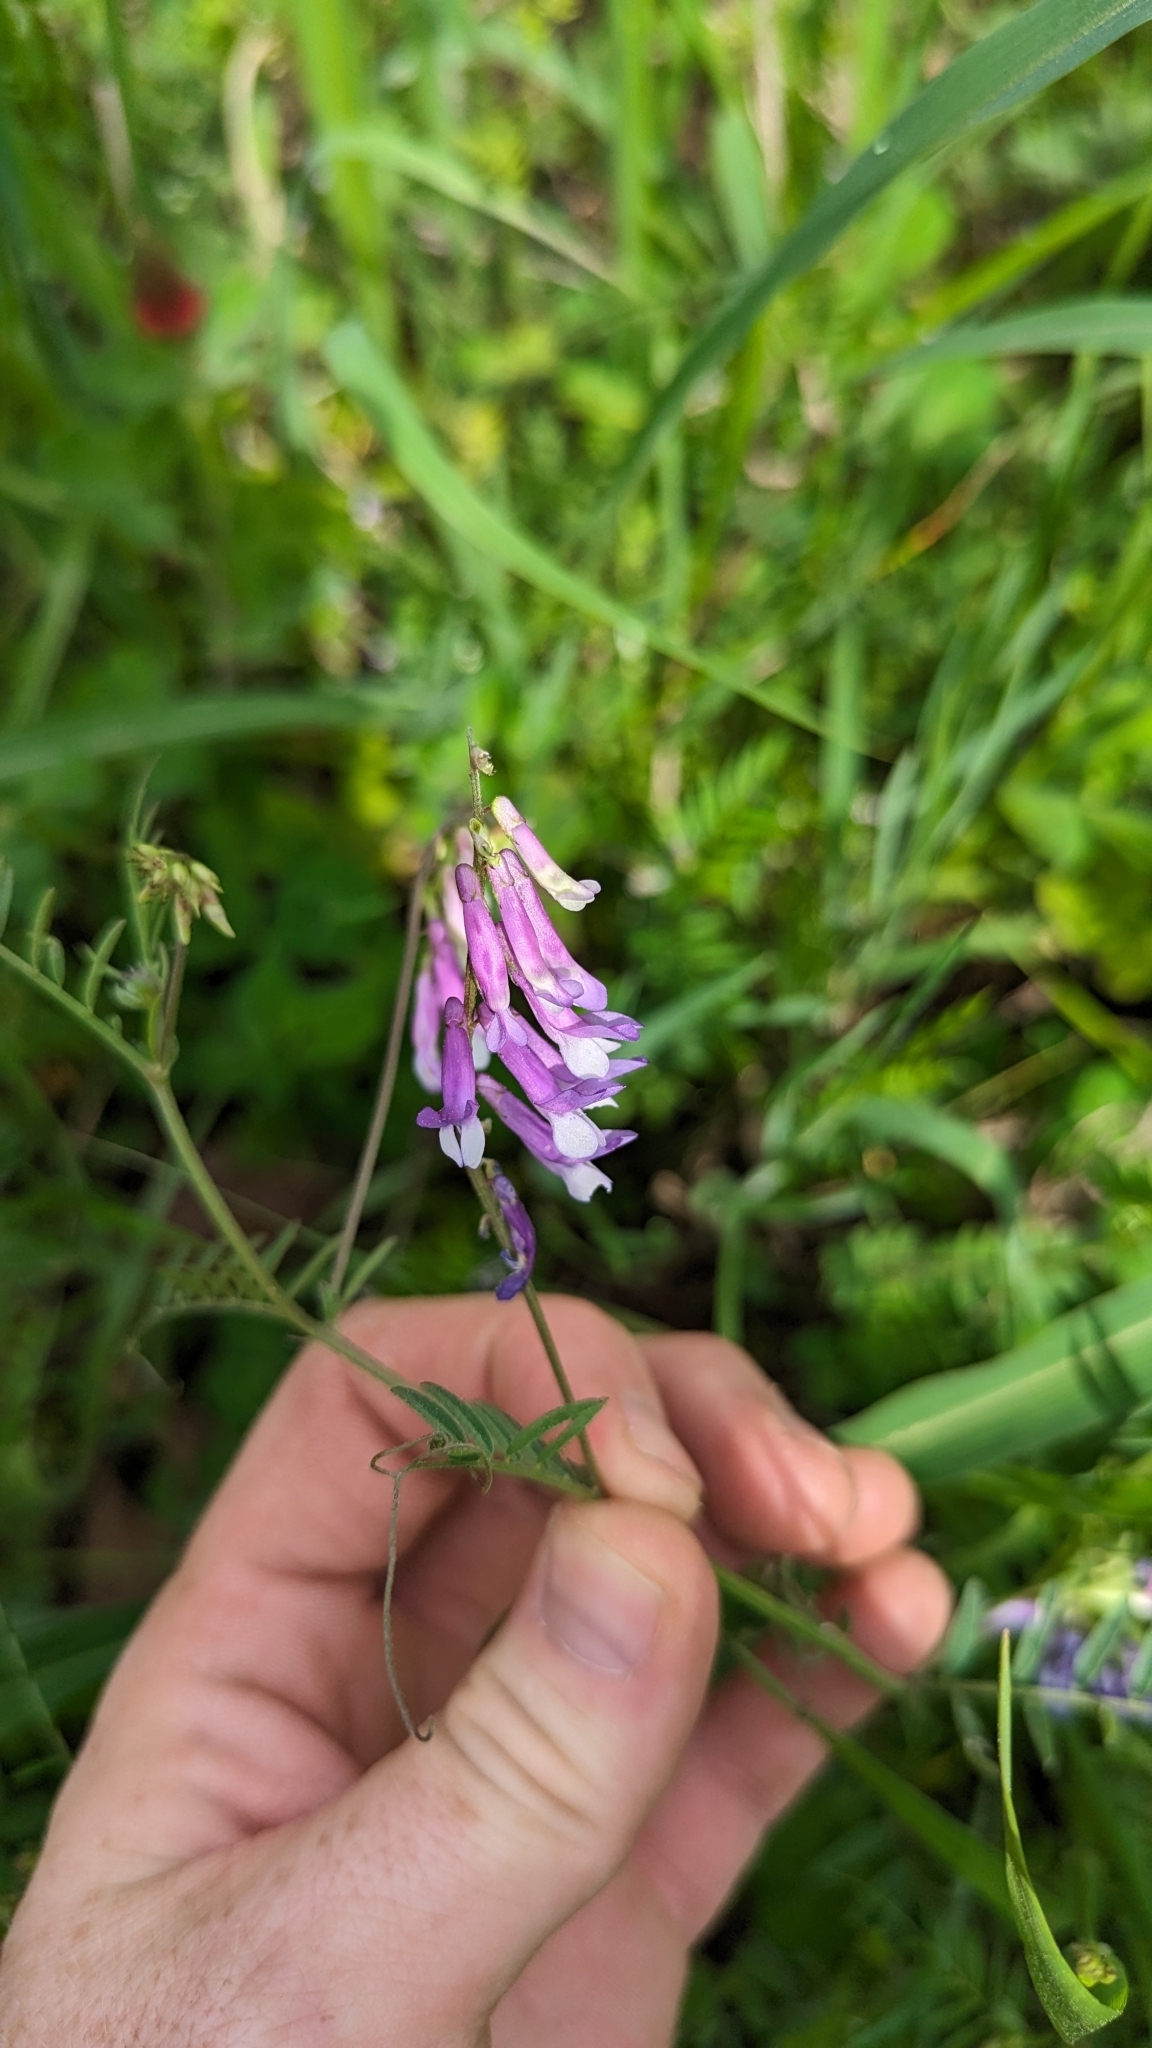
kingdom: Plantae
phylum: Tracheophyta
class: Magnoliopsida
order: Fabales
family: Fabaceae
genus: Vicia
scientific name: Vicia villosa
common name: Fodder vetch
